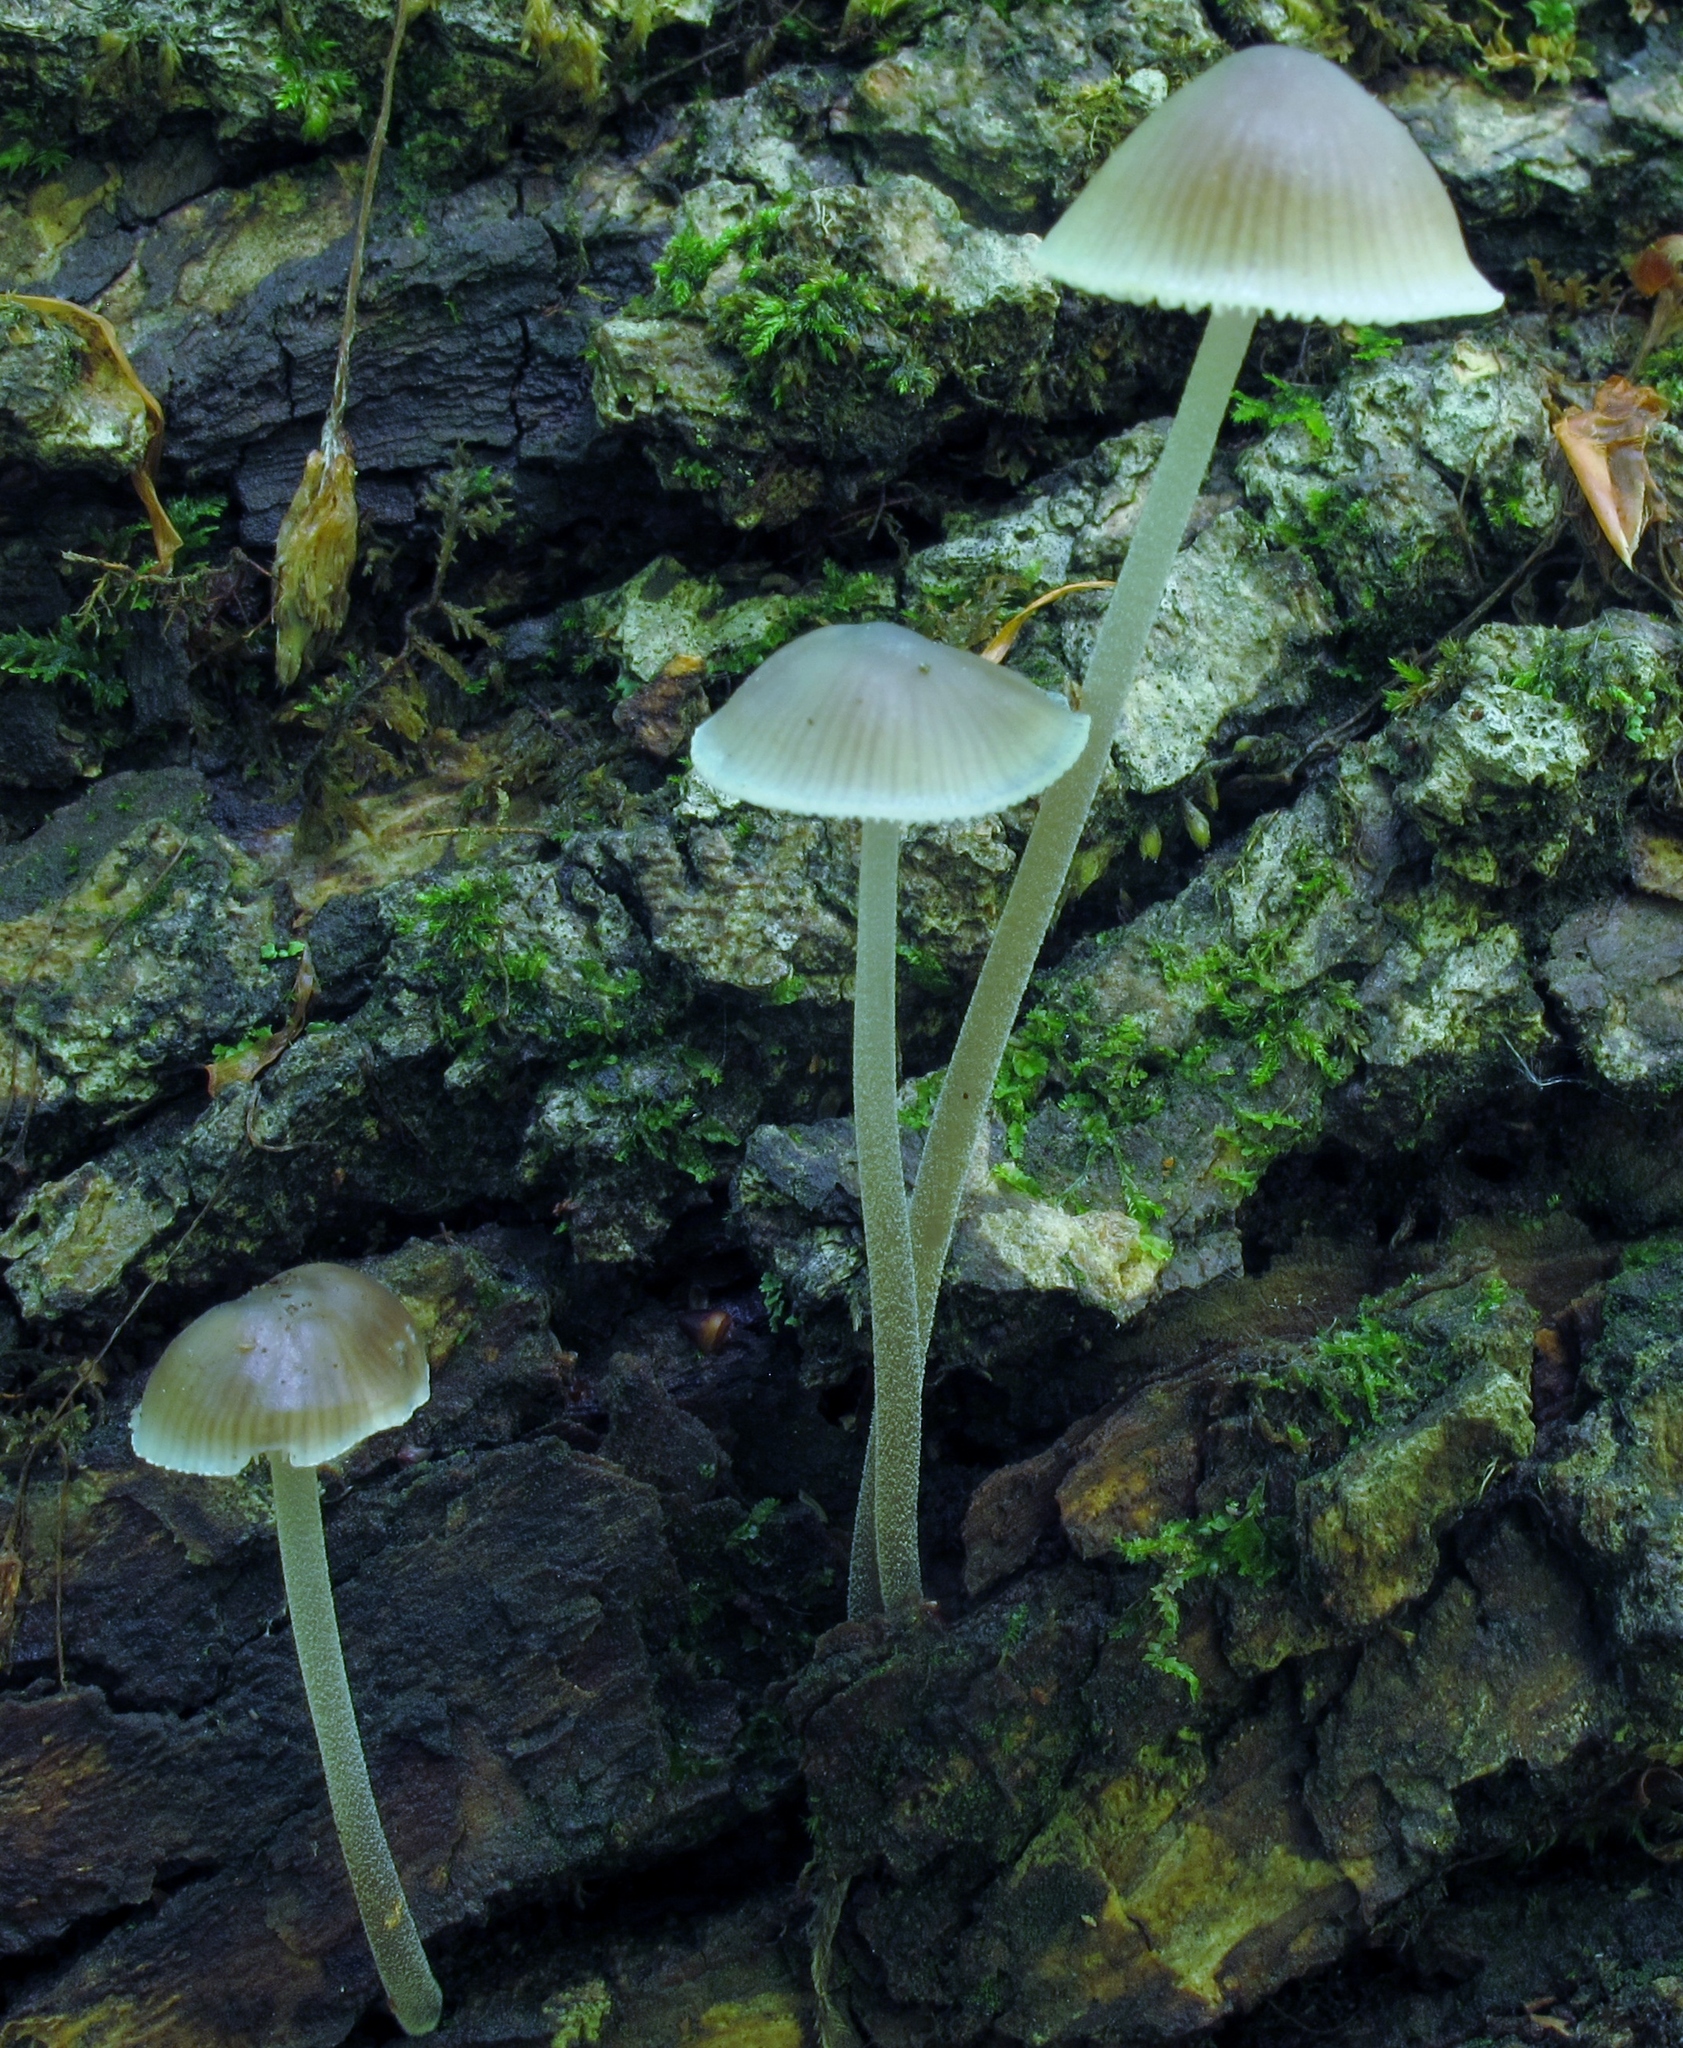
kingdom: Fungi
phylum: Basidiomycota
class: Agaricomycetes
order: Agaricales
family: Mycenaceae
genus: Mycena
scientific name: Mycena subcaerulea
